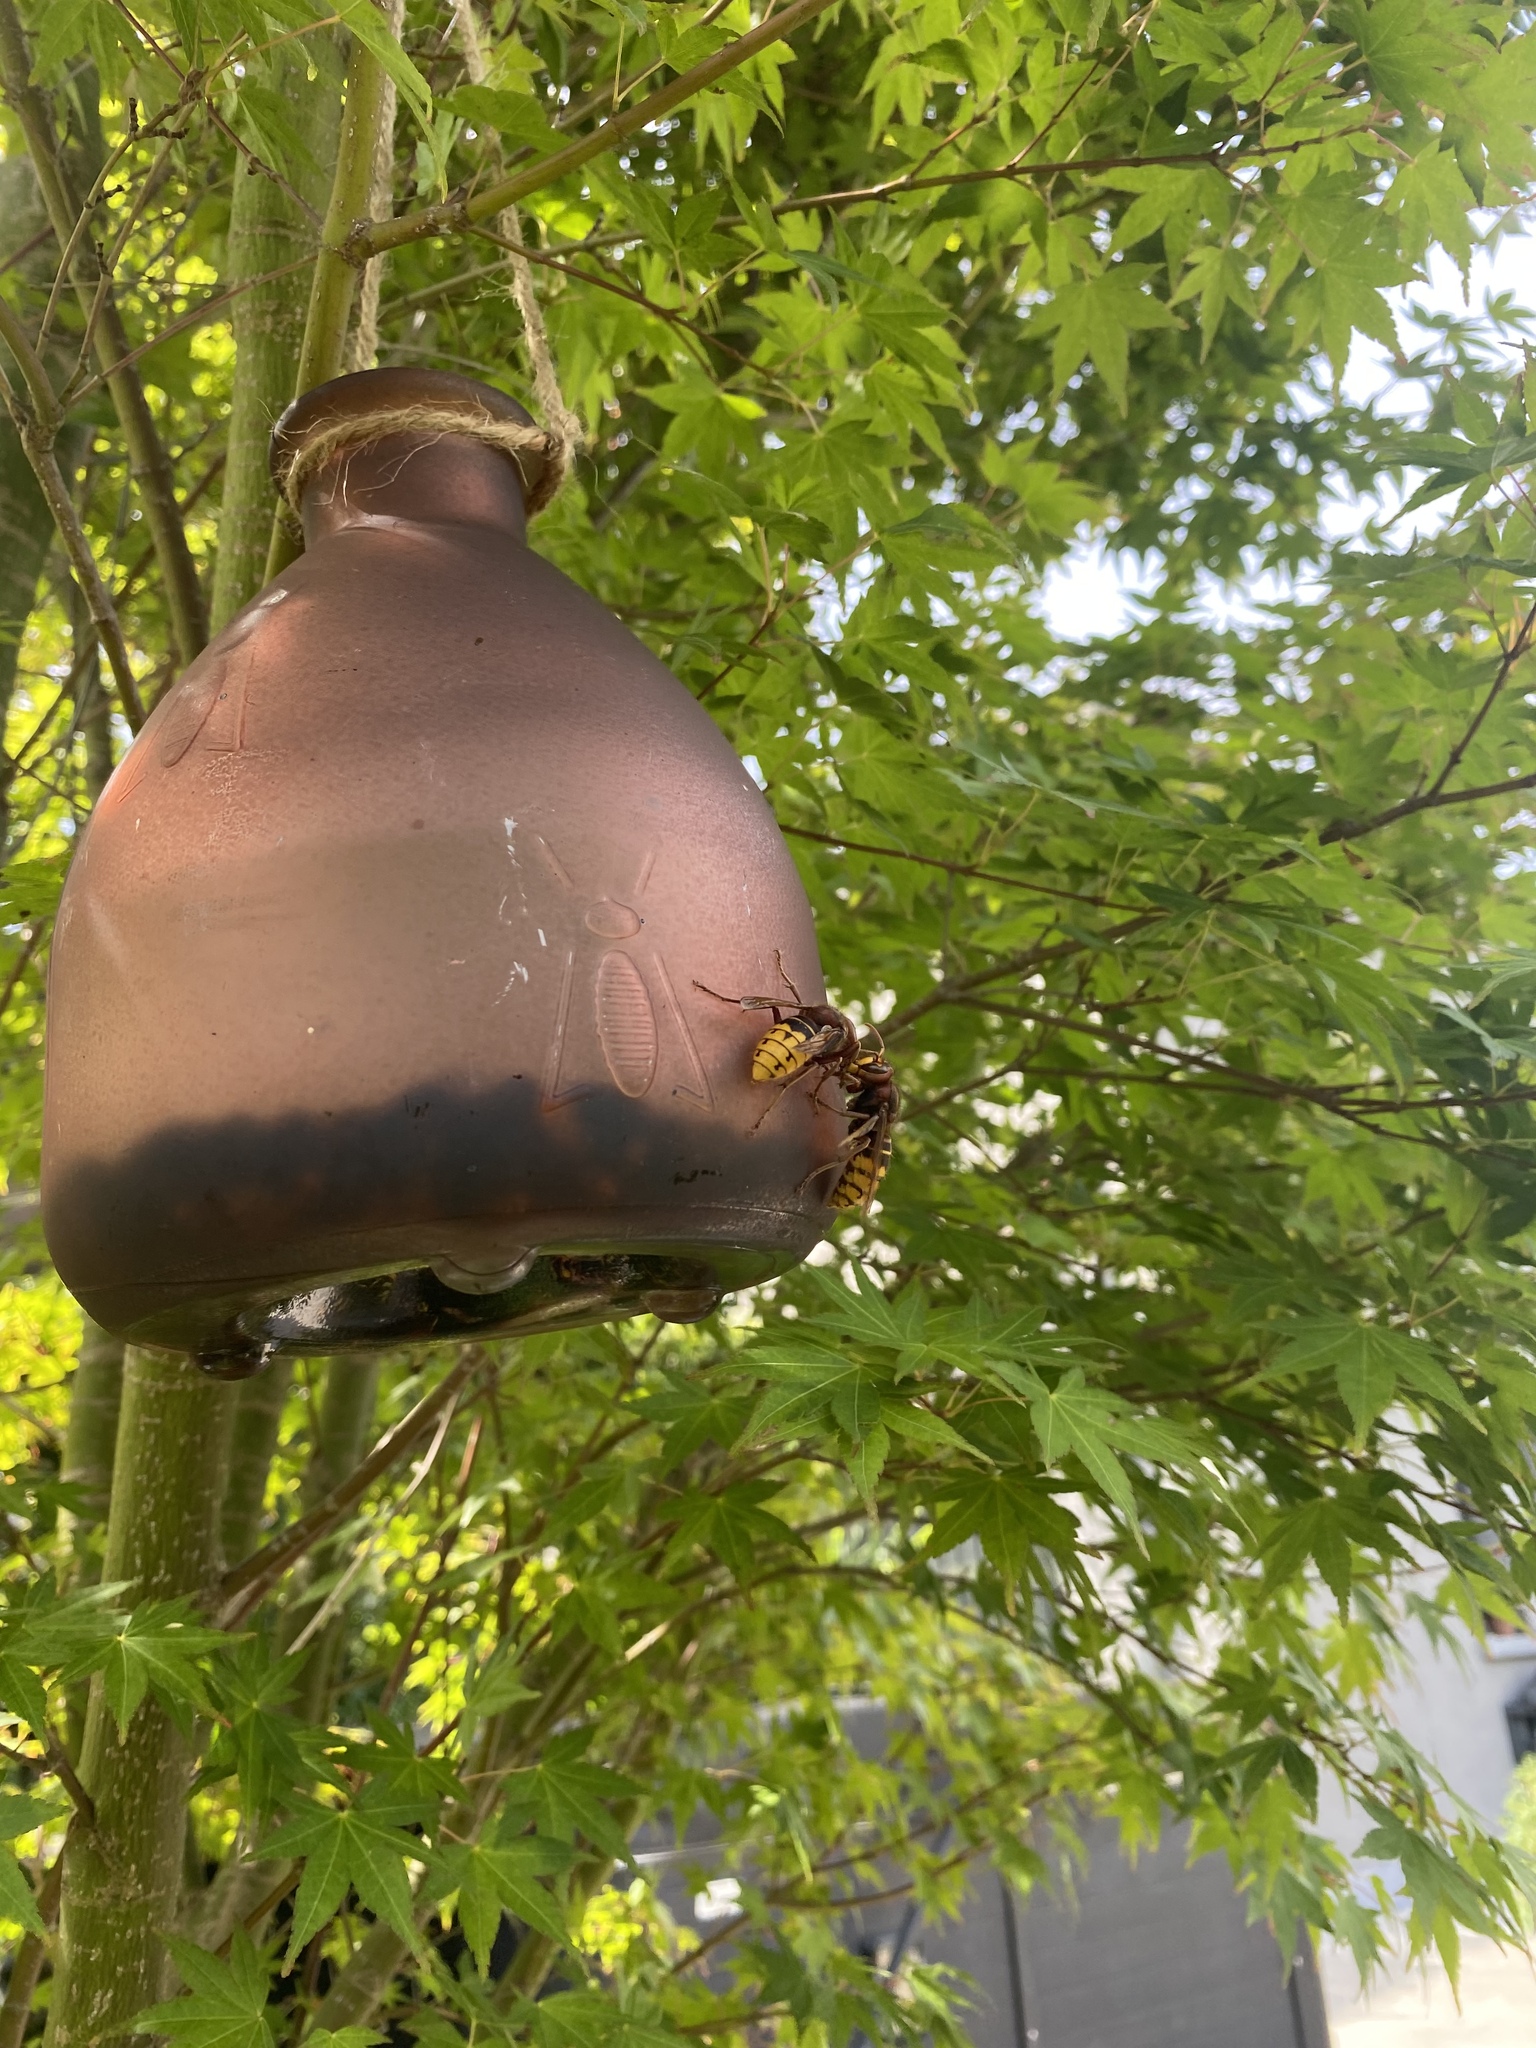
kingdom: Animalia
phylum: Arthropoda
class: Insecta
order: Hymenoptera
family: Vespidae
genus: Vespa
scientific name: Vespa crabro
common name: Hornet
